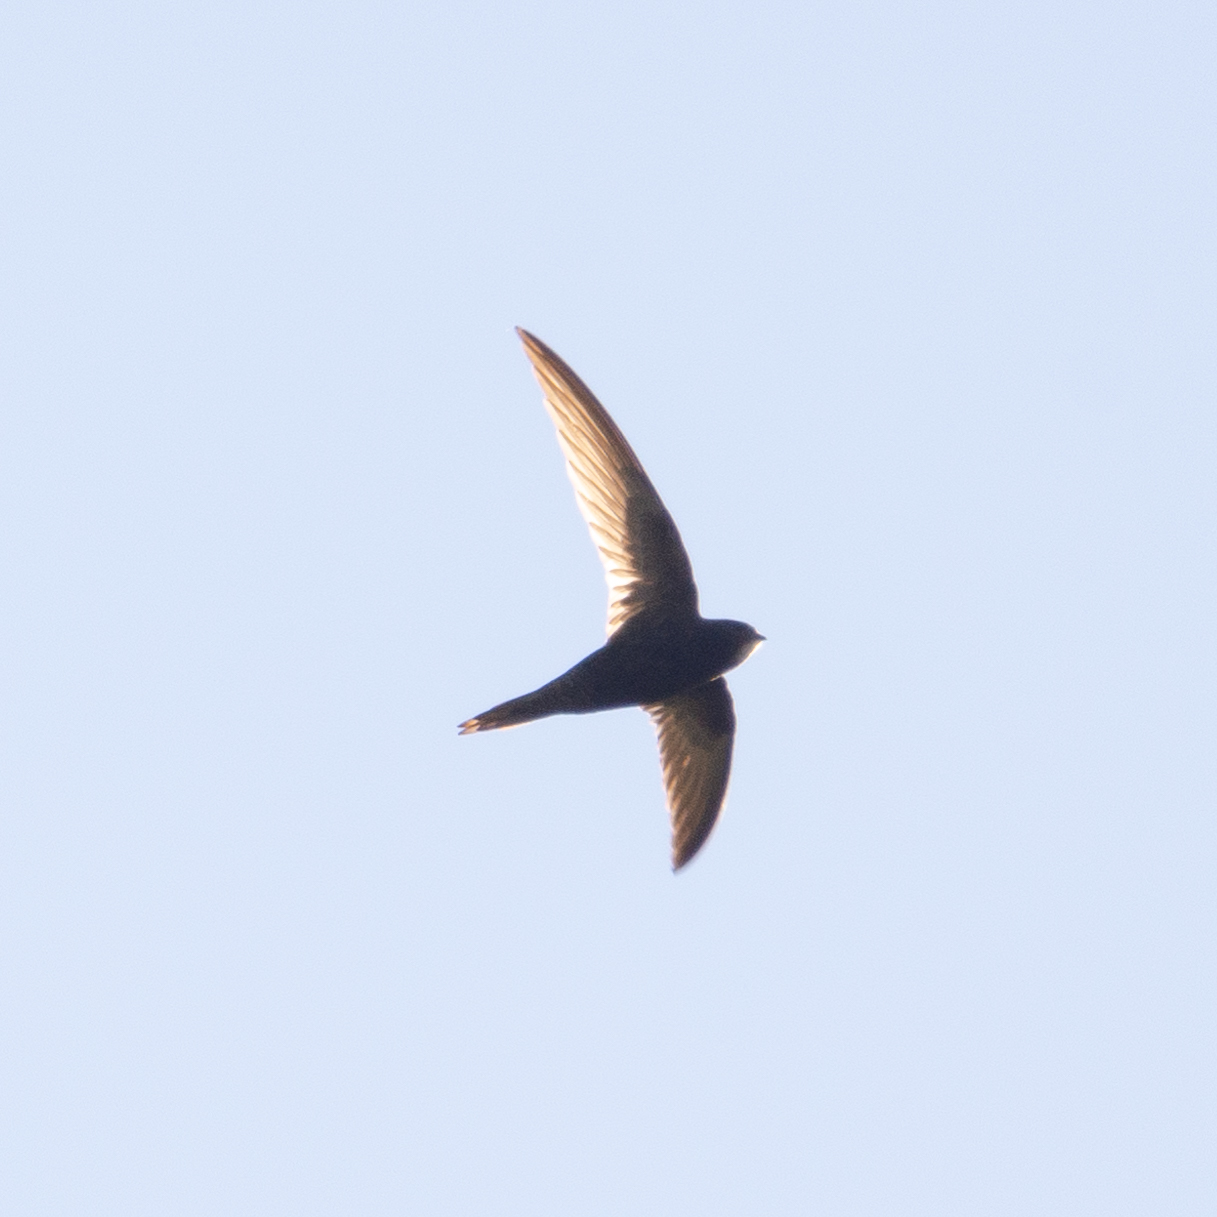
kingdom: Animalia
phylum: Chordata
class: Aves
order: Apodiformes
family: Apodidae
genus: Apus
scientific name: Apus apus
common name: Common swift
